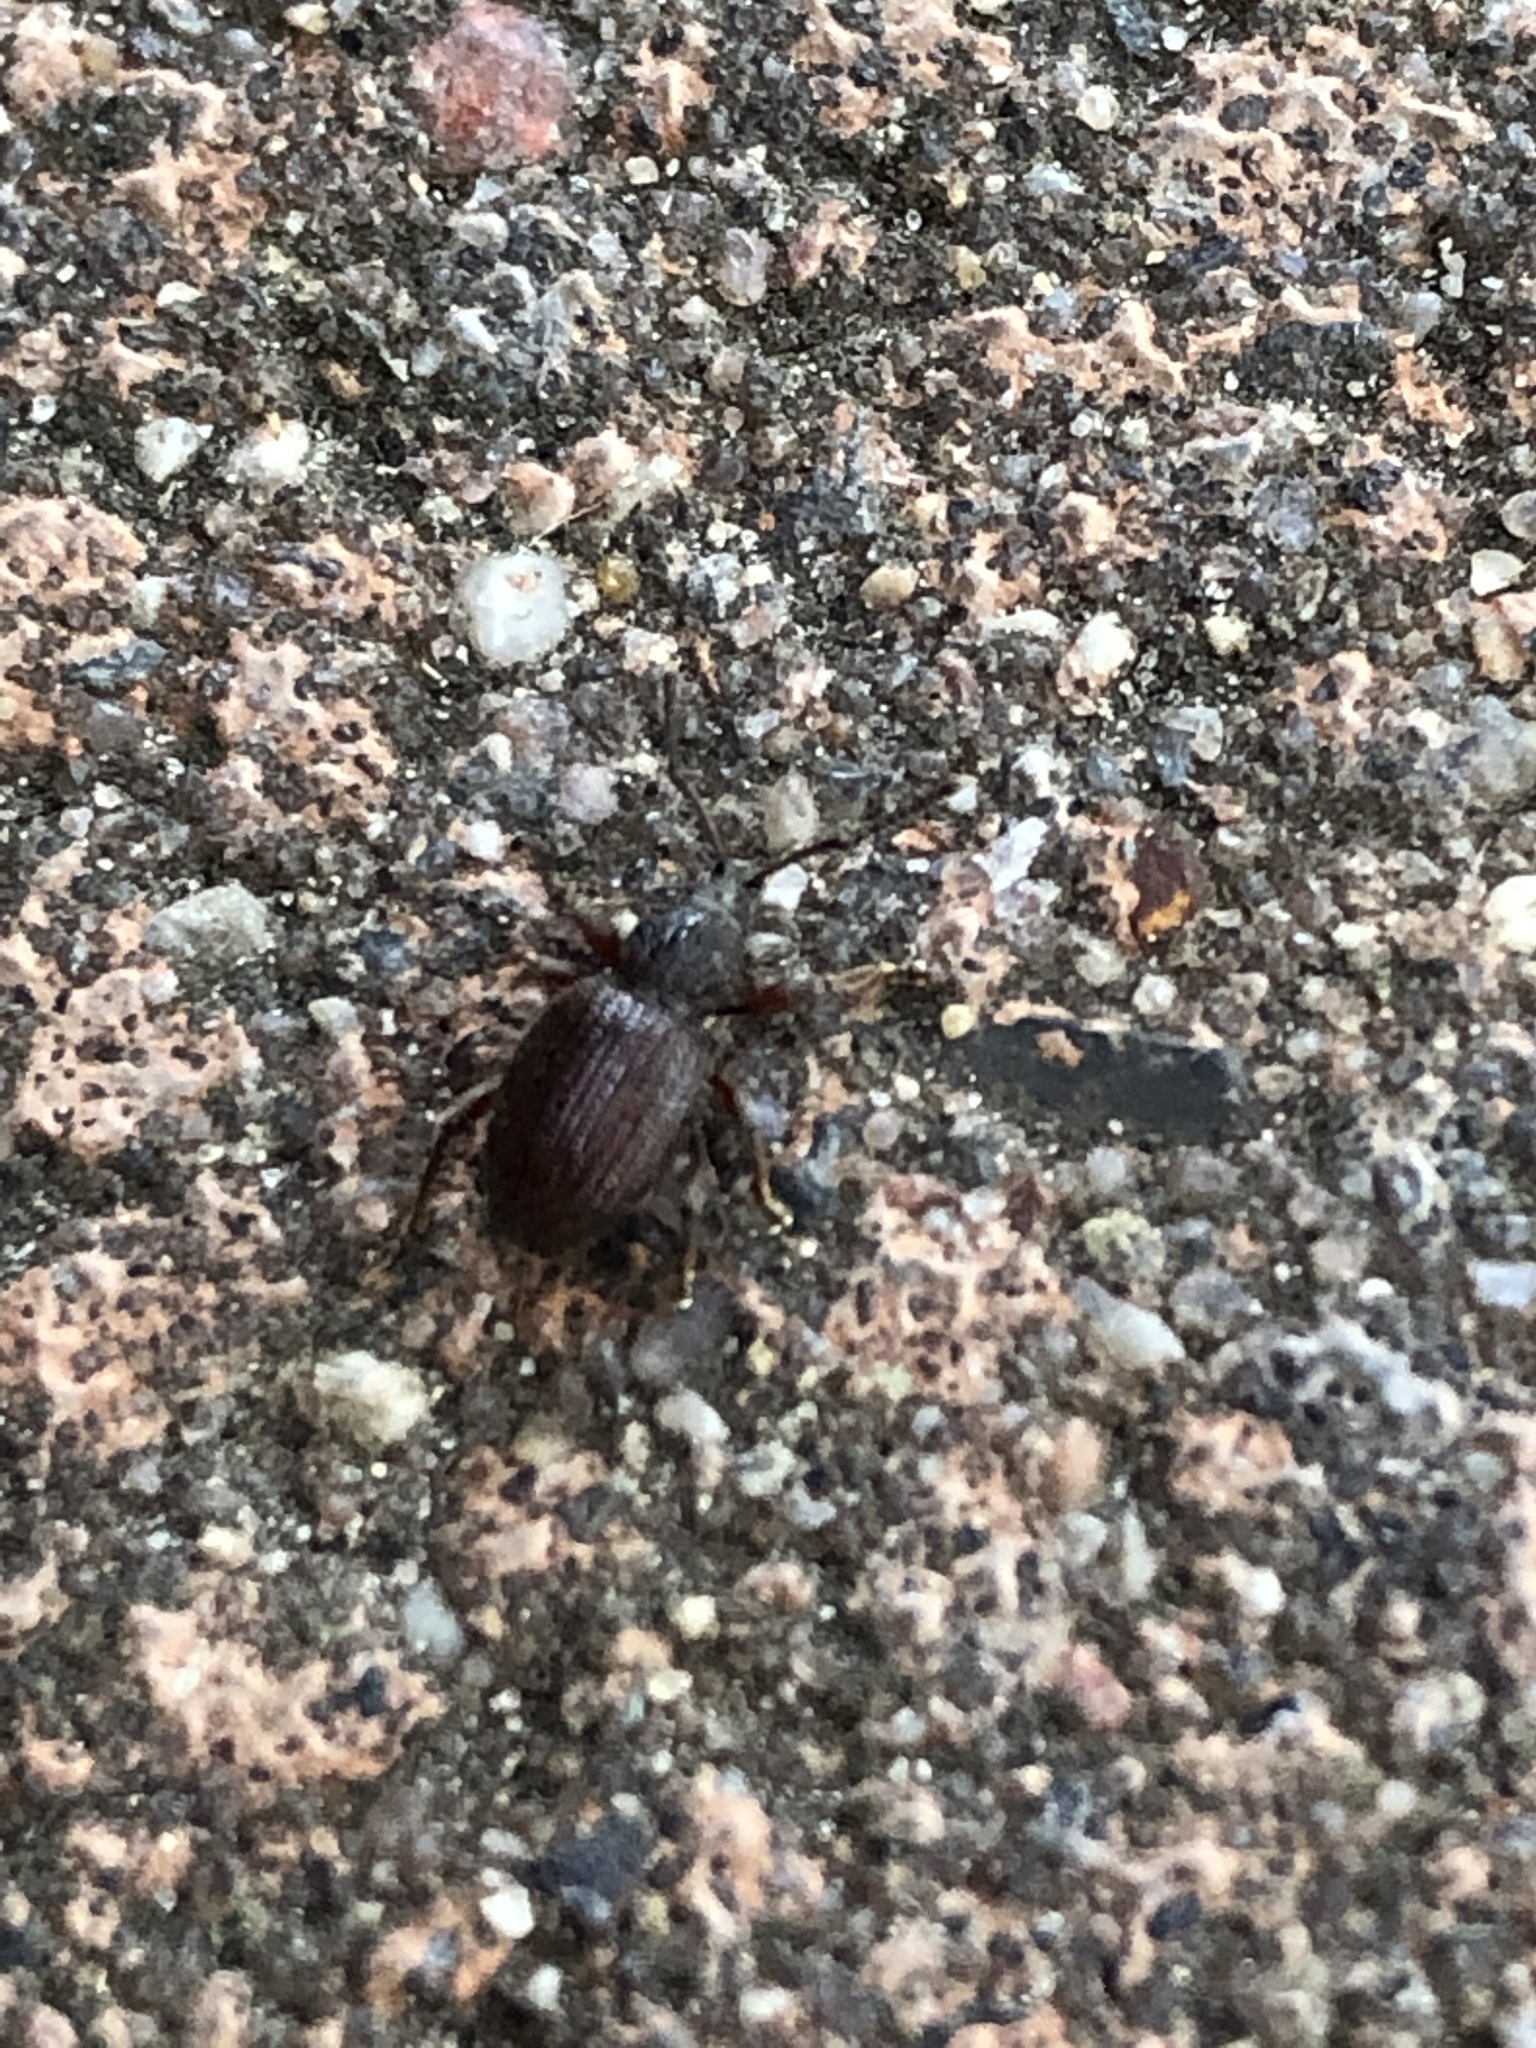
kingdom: Animalia
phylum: Arthropoda
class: Insecta
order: Coleoptera
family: Curculionidae
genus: Otiorhynchus
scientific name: Otiorhynchus ovatus
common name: Strawberry root weevil
